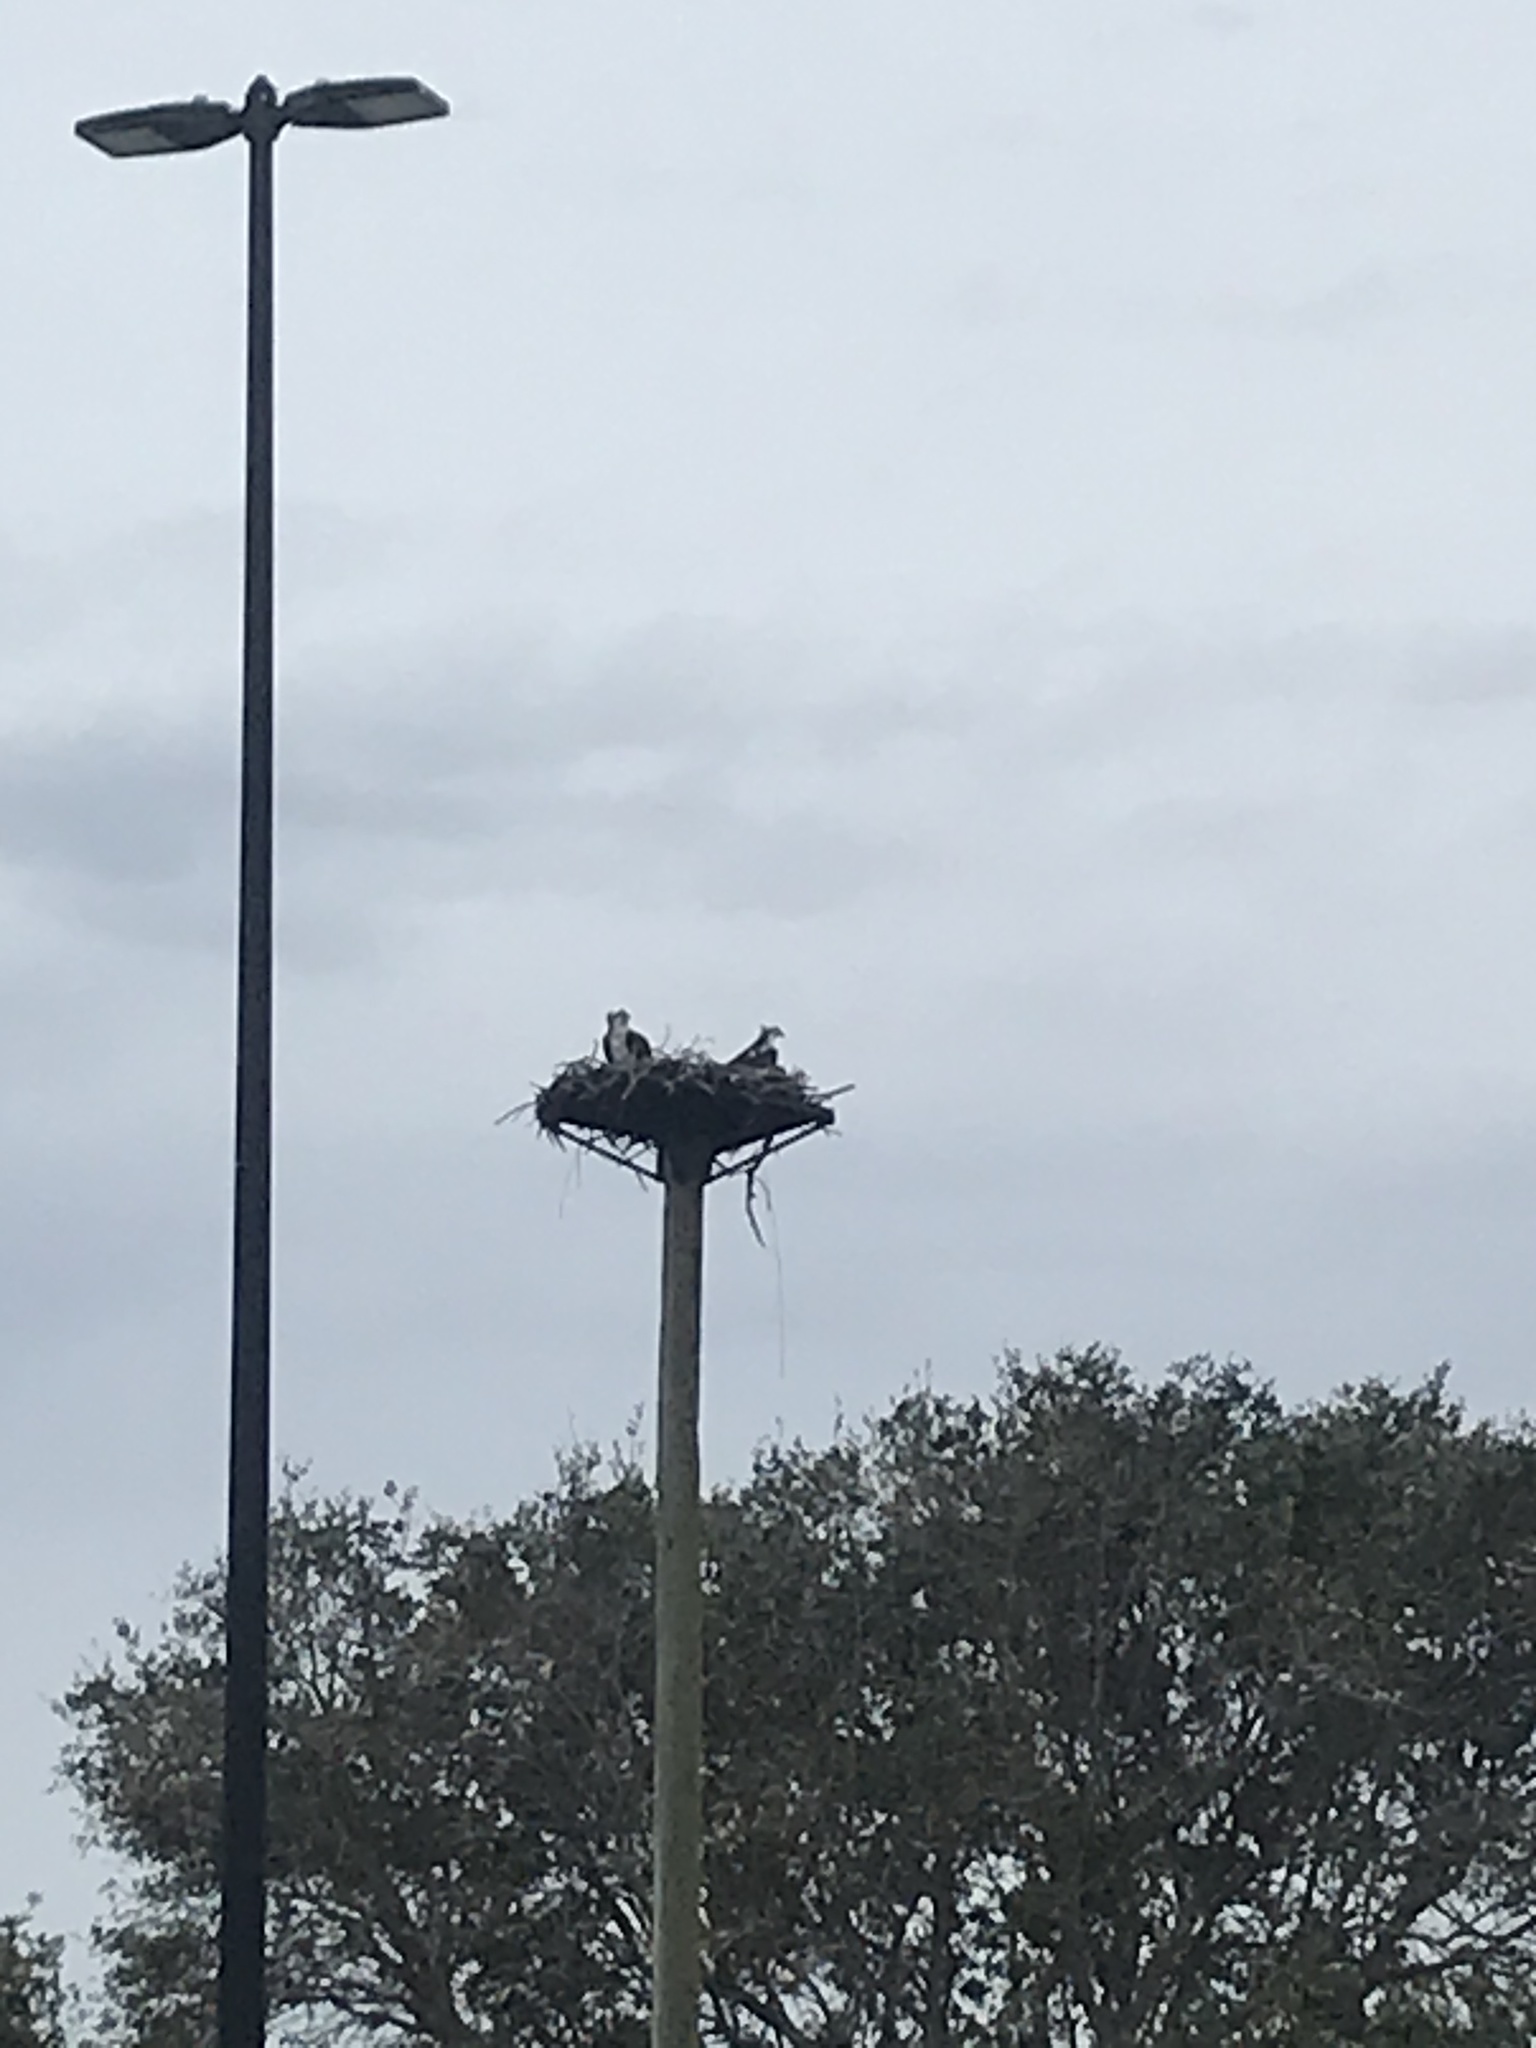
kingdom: Animalia
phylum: Chordata
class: Aves
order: Accipitriformes
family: Pandionidae
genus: Pandion
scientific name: Pandion haliaetus
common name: Osprey
